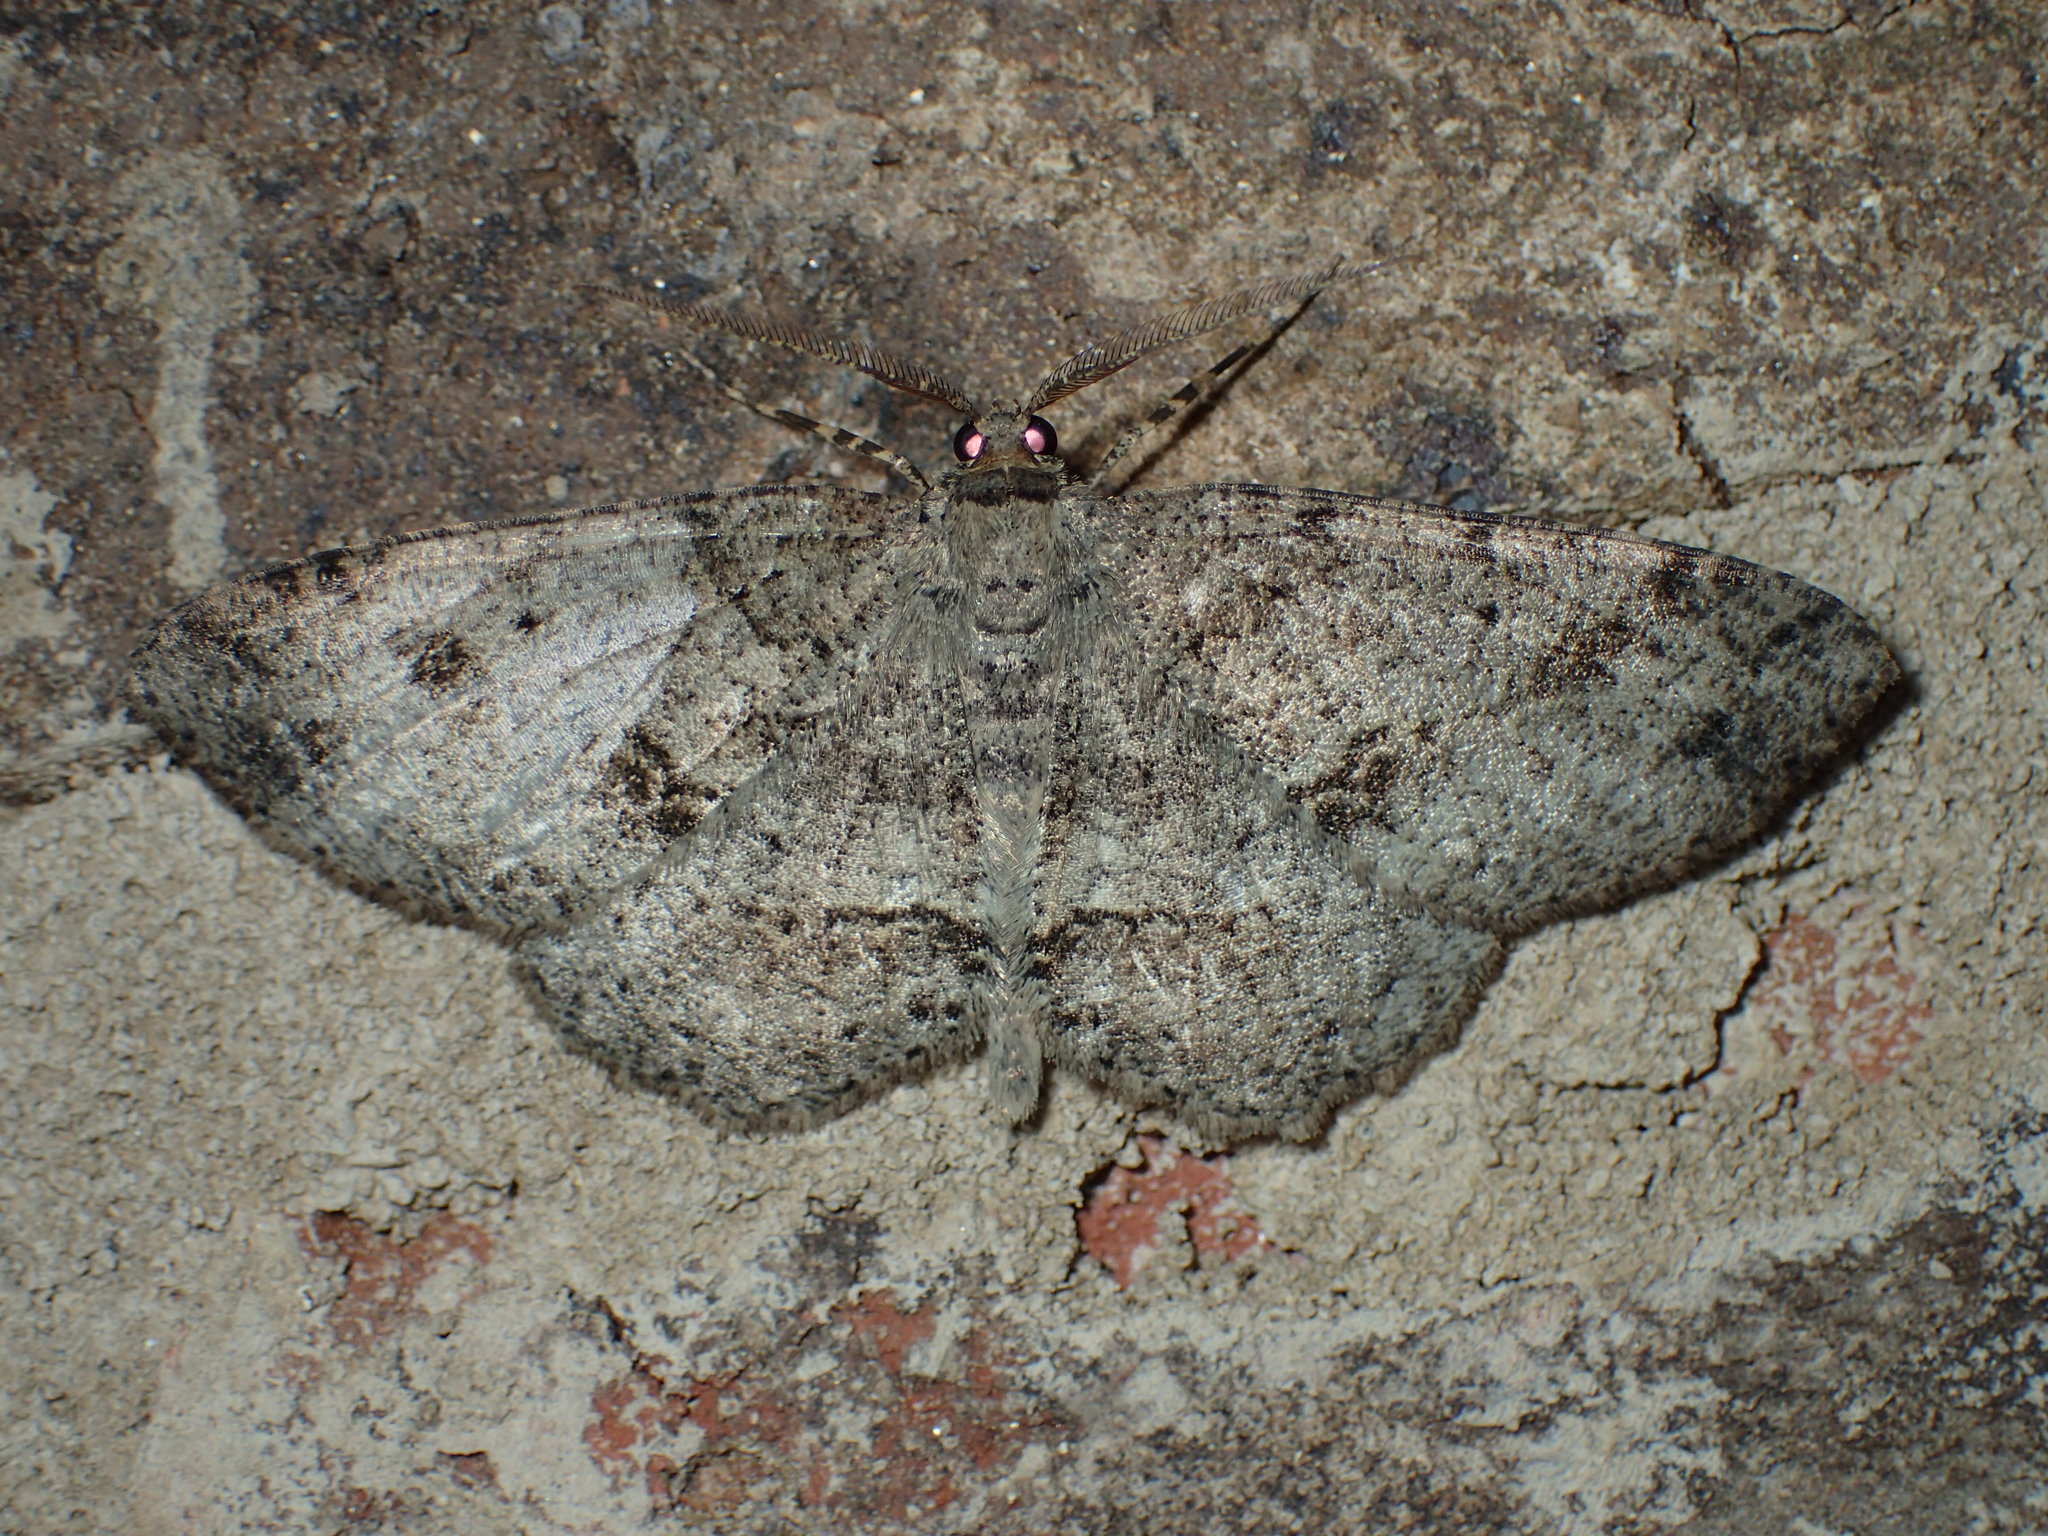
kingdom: Animalia
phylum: Arthropoda
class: Insecta
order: Lepidoptera
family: Geometridae
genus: Melanolophia
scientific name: Melanolophia canadaria
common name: Canadian melanolophia
